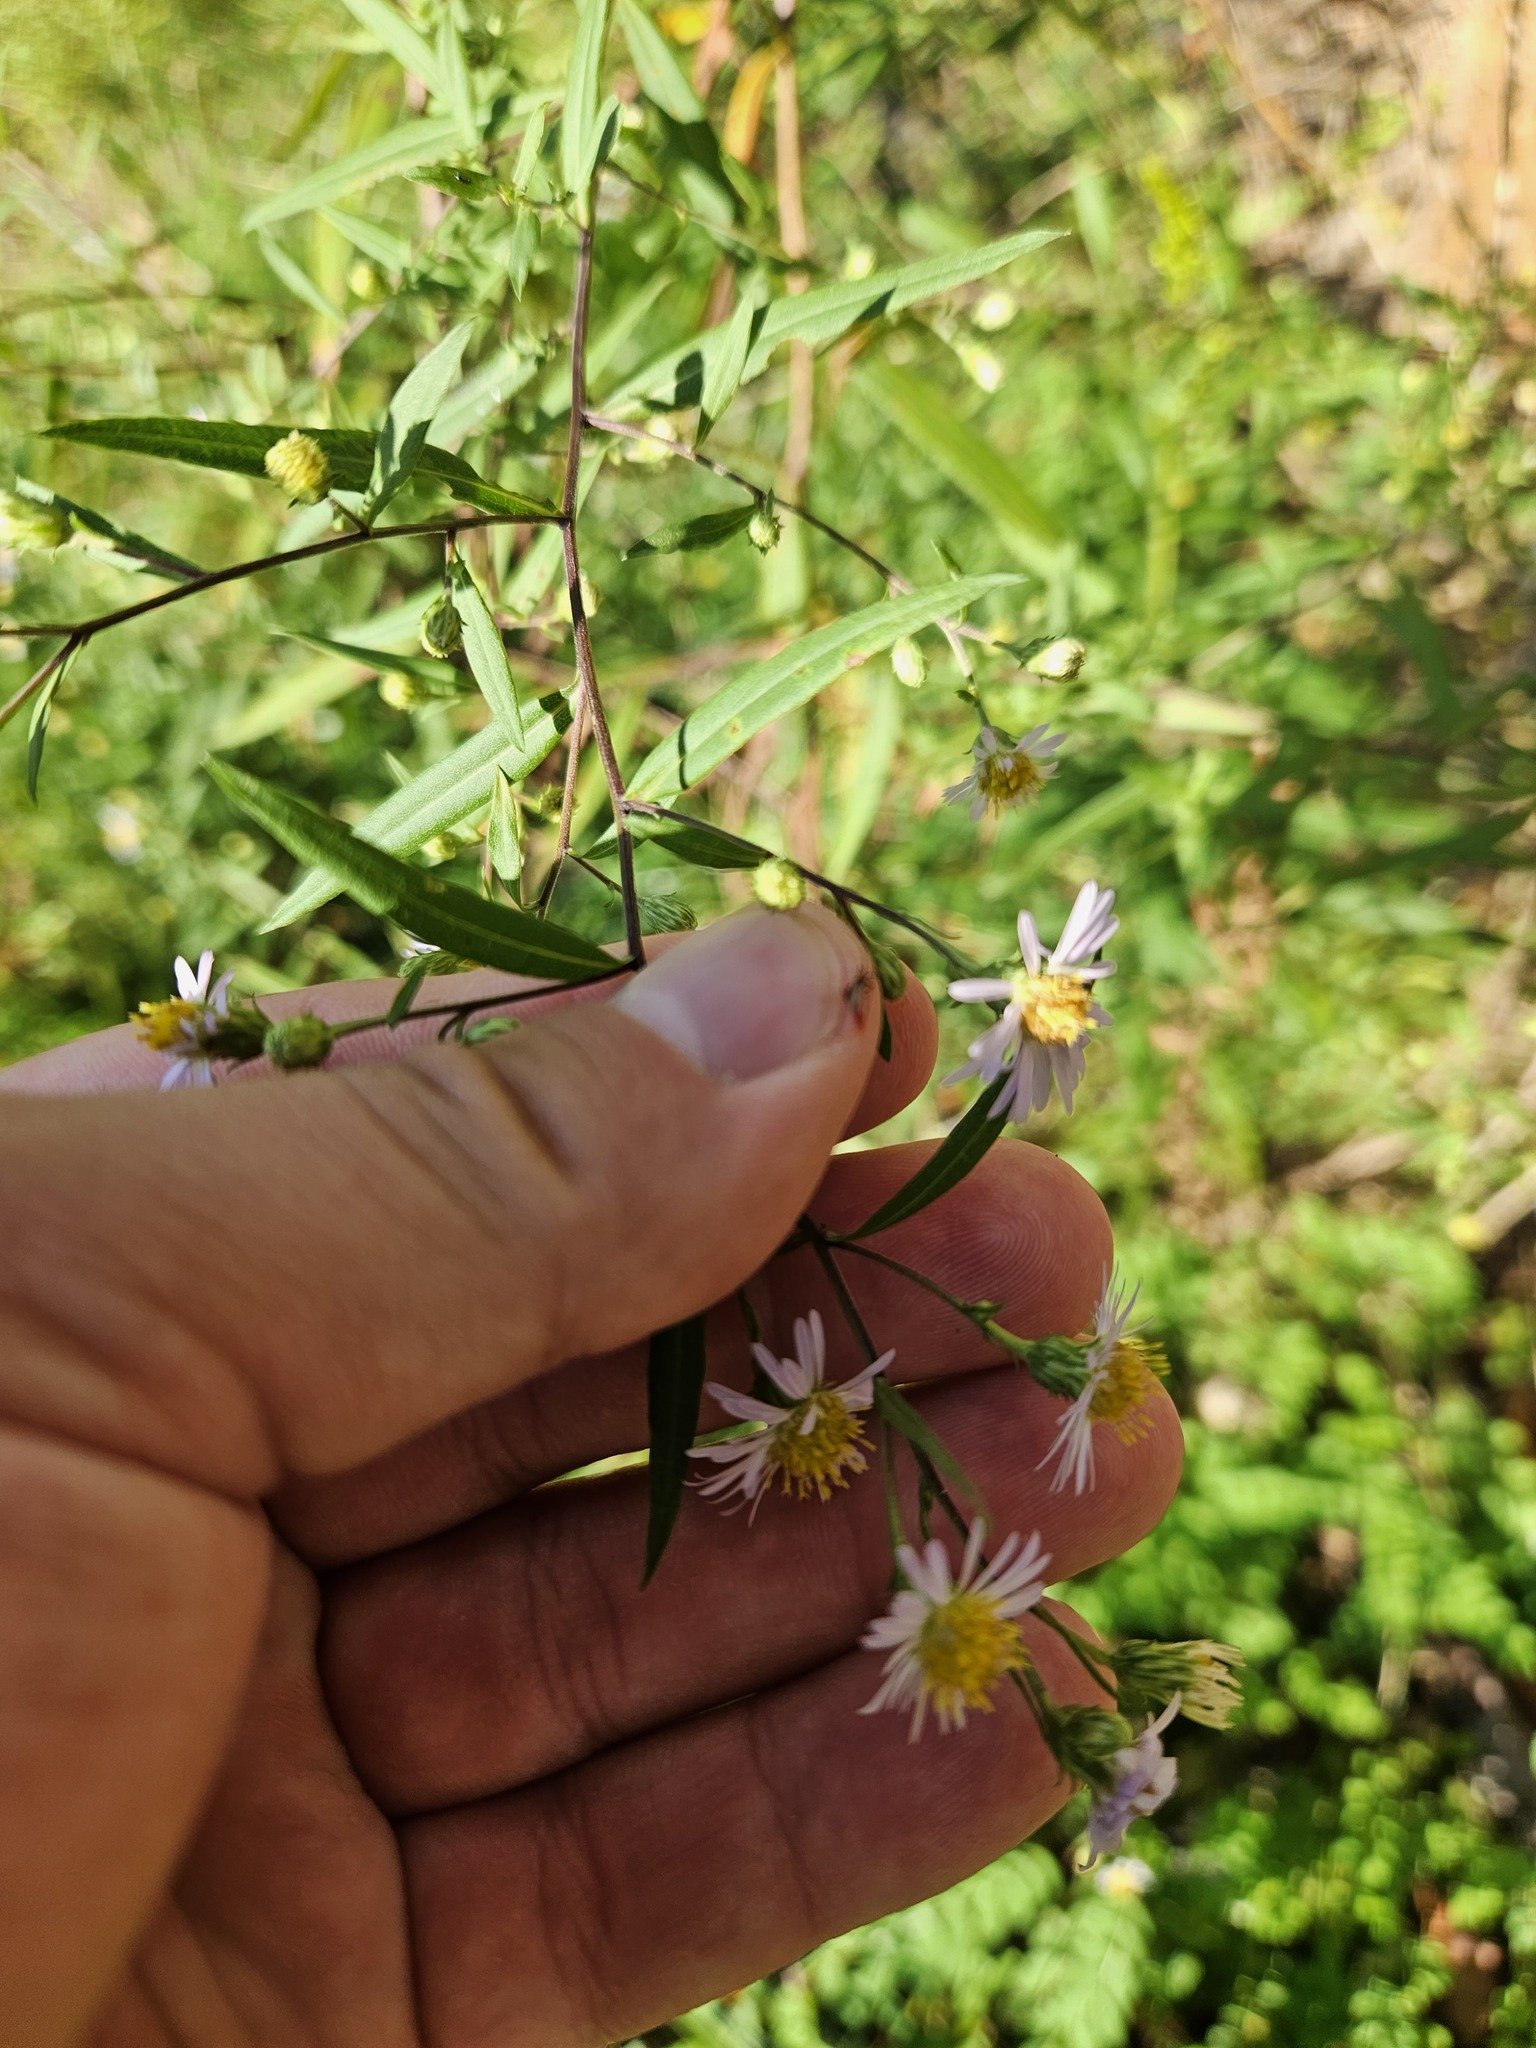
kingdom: Plantae
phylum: Tracheophyta
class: Magnoliopsida
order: Asterales
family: Asteraceae
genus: Symphyotrichum
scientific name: Symphyotrichum lanceolatum
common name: Panicled aster
